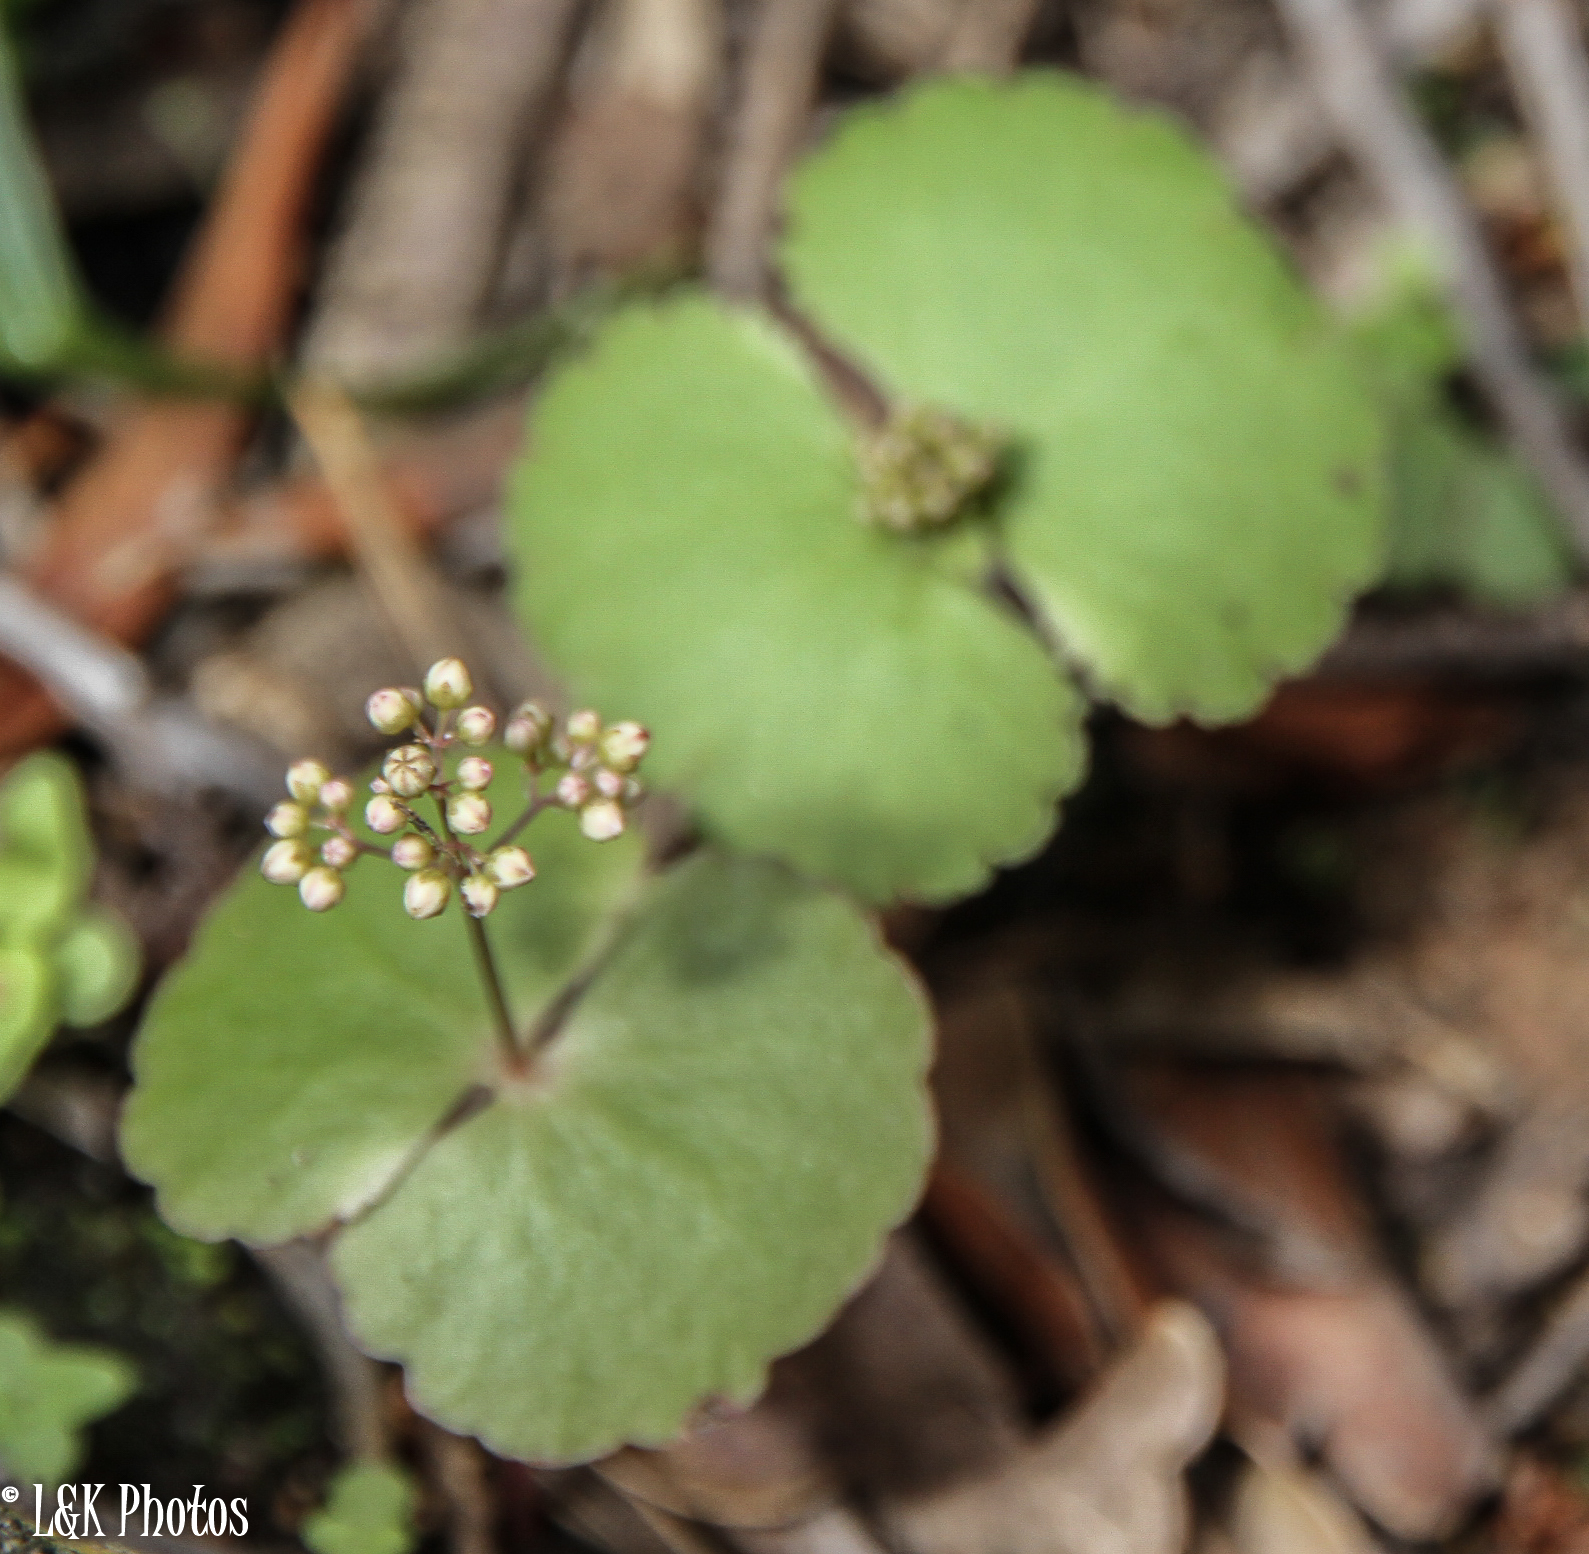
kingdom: Plantae
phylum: Tracheophyta
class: Magnoliopsida
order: Saxifragales
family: Crassulaceae
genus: Crassula
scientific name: Crassula umbella
